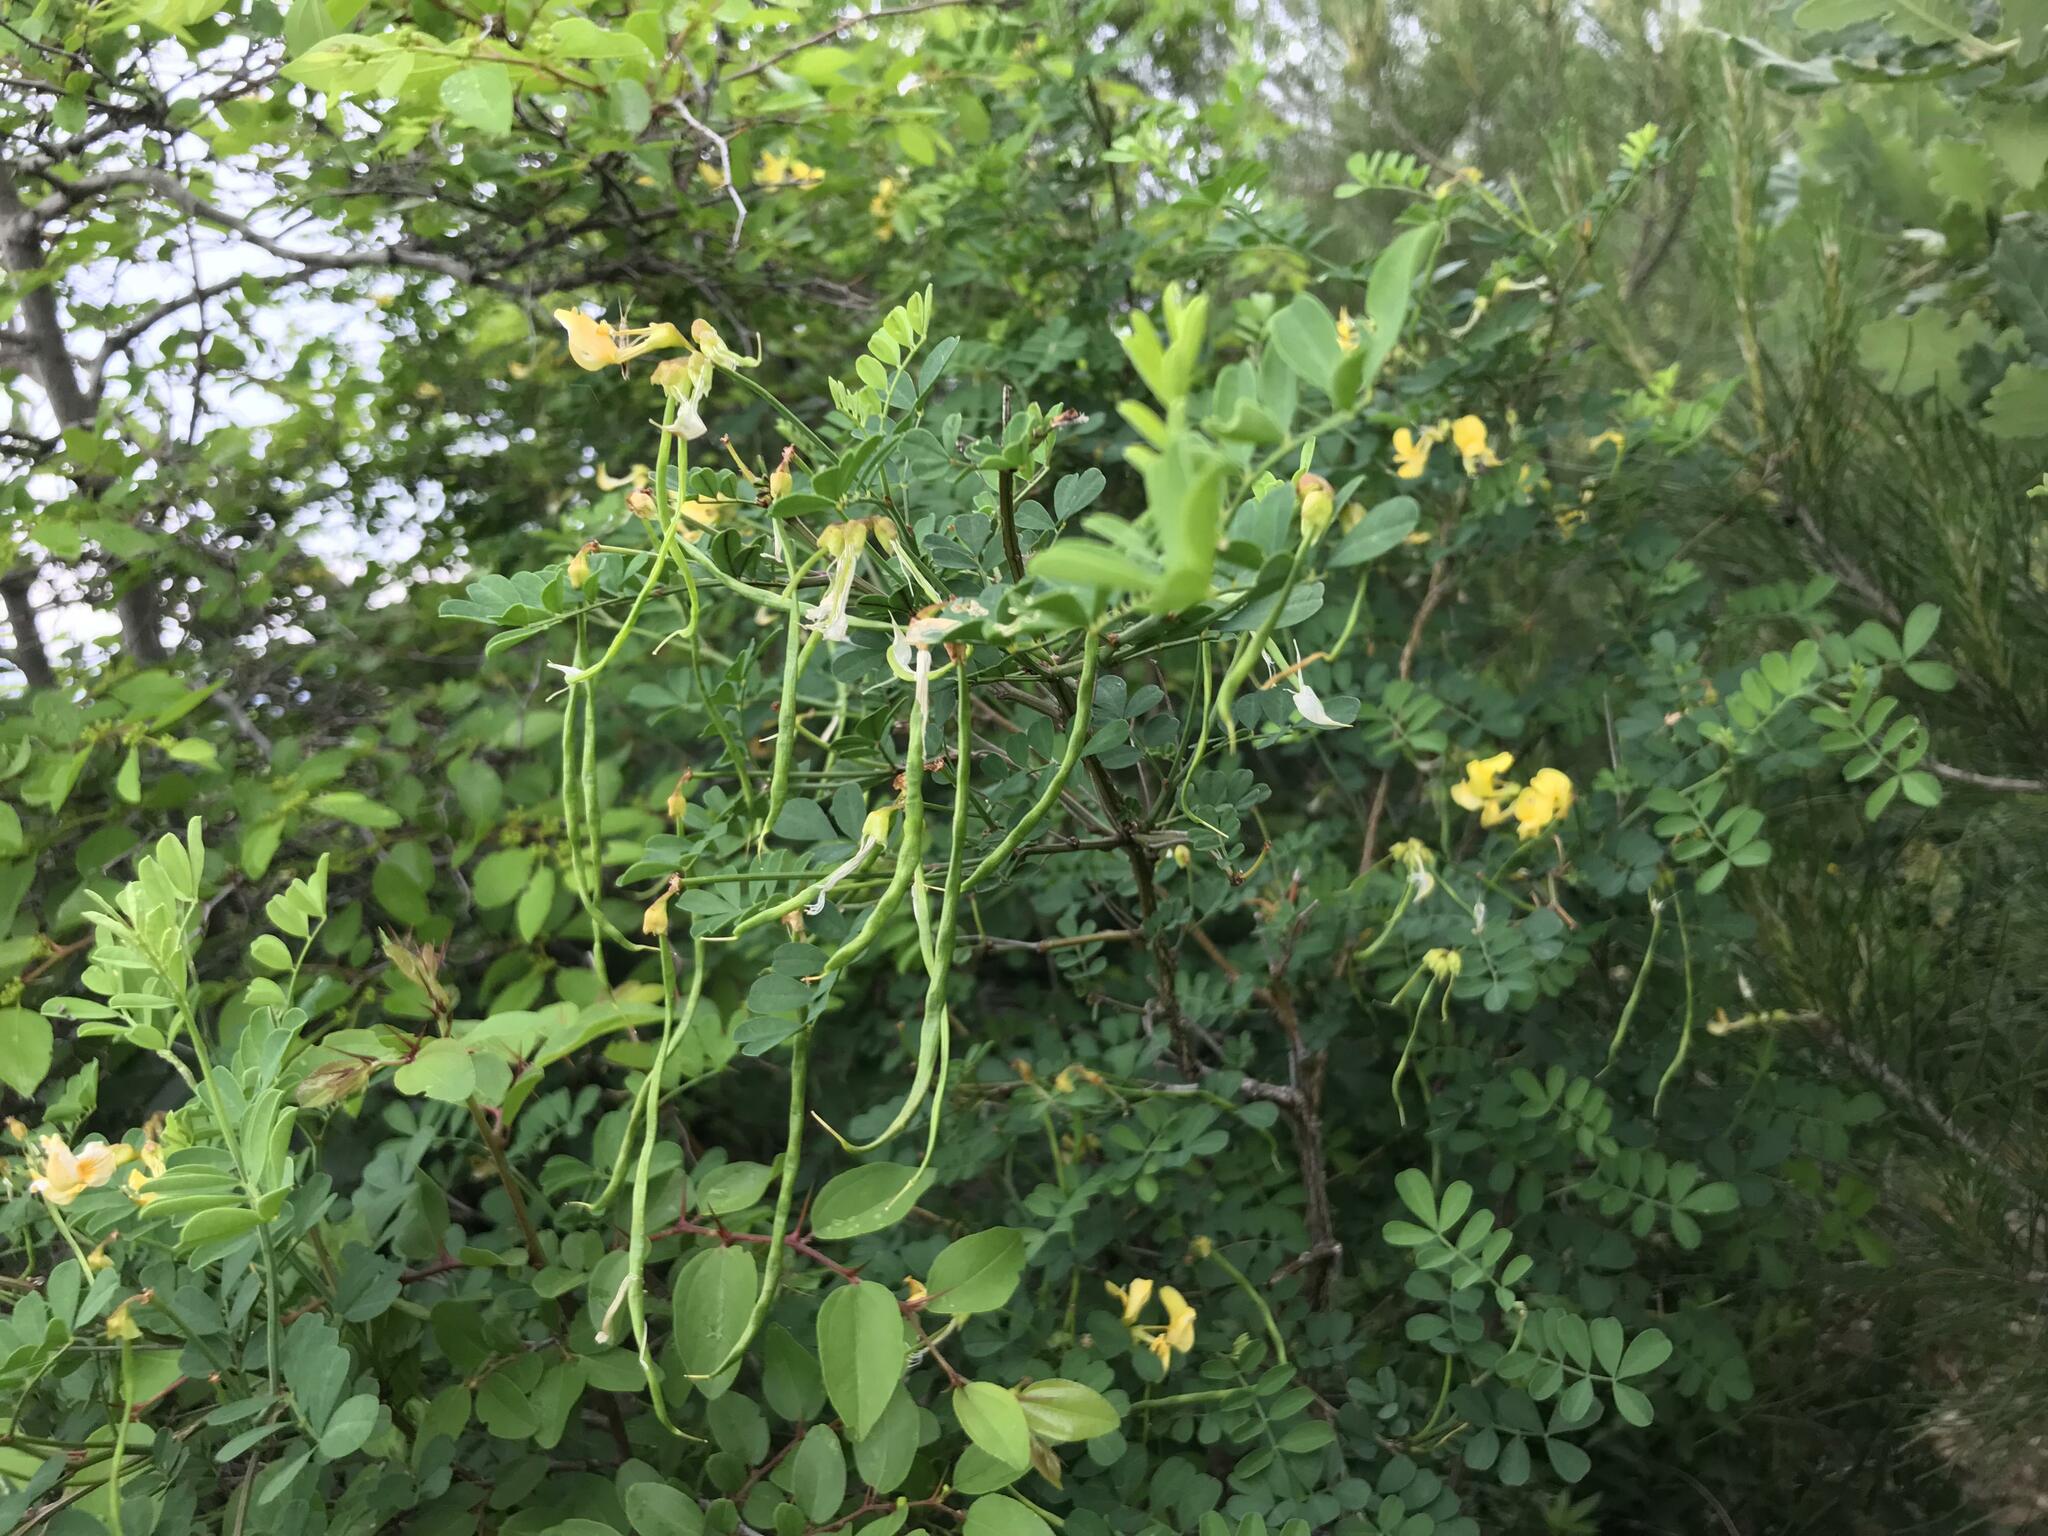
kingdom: Plantae
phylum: Tracheophyta
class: Magnoliopsida
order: Fabales
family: Fabaceae
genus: Hippocrepis
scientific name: Hippocrepis emerus
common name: Scorpion senna
